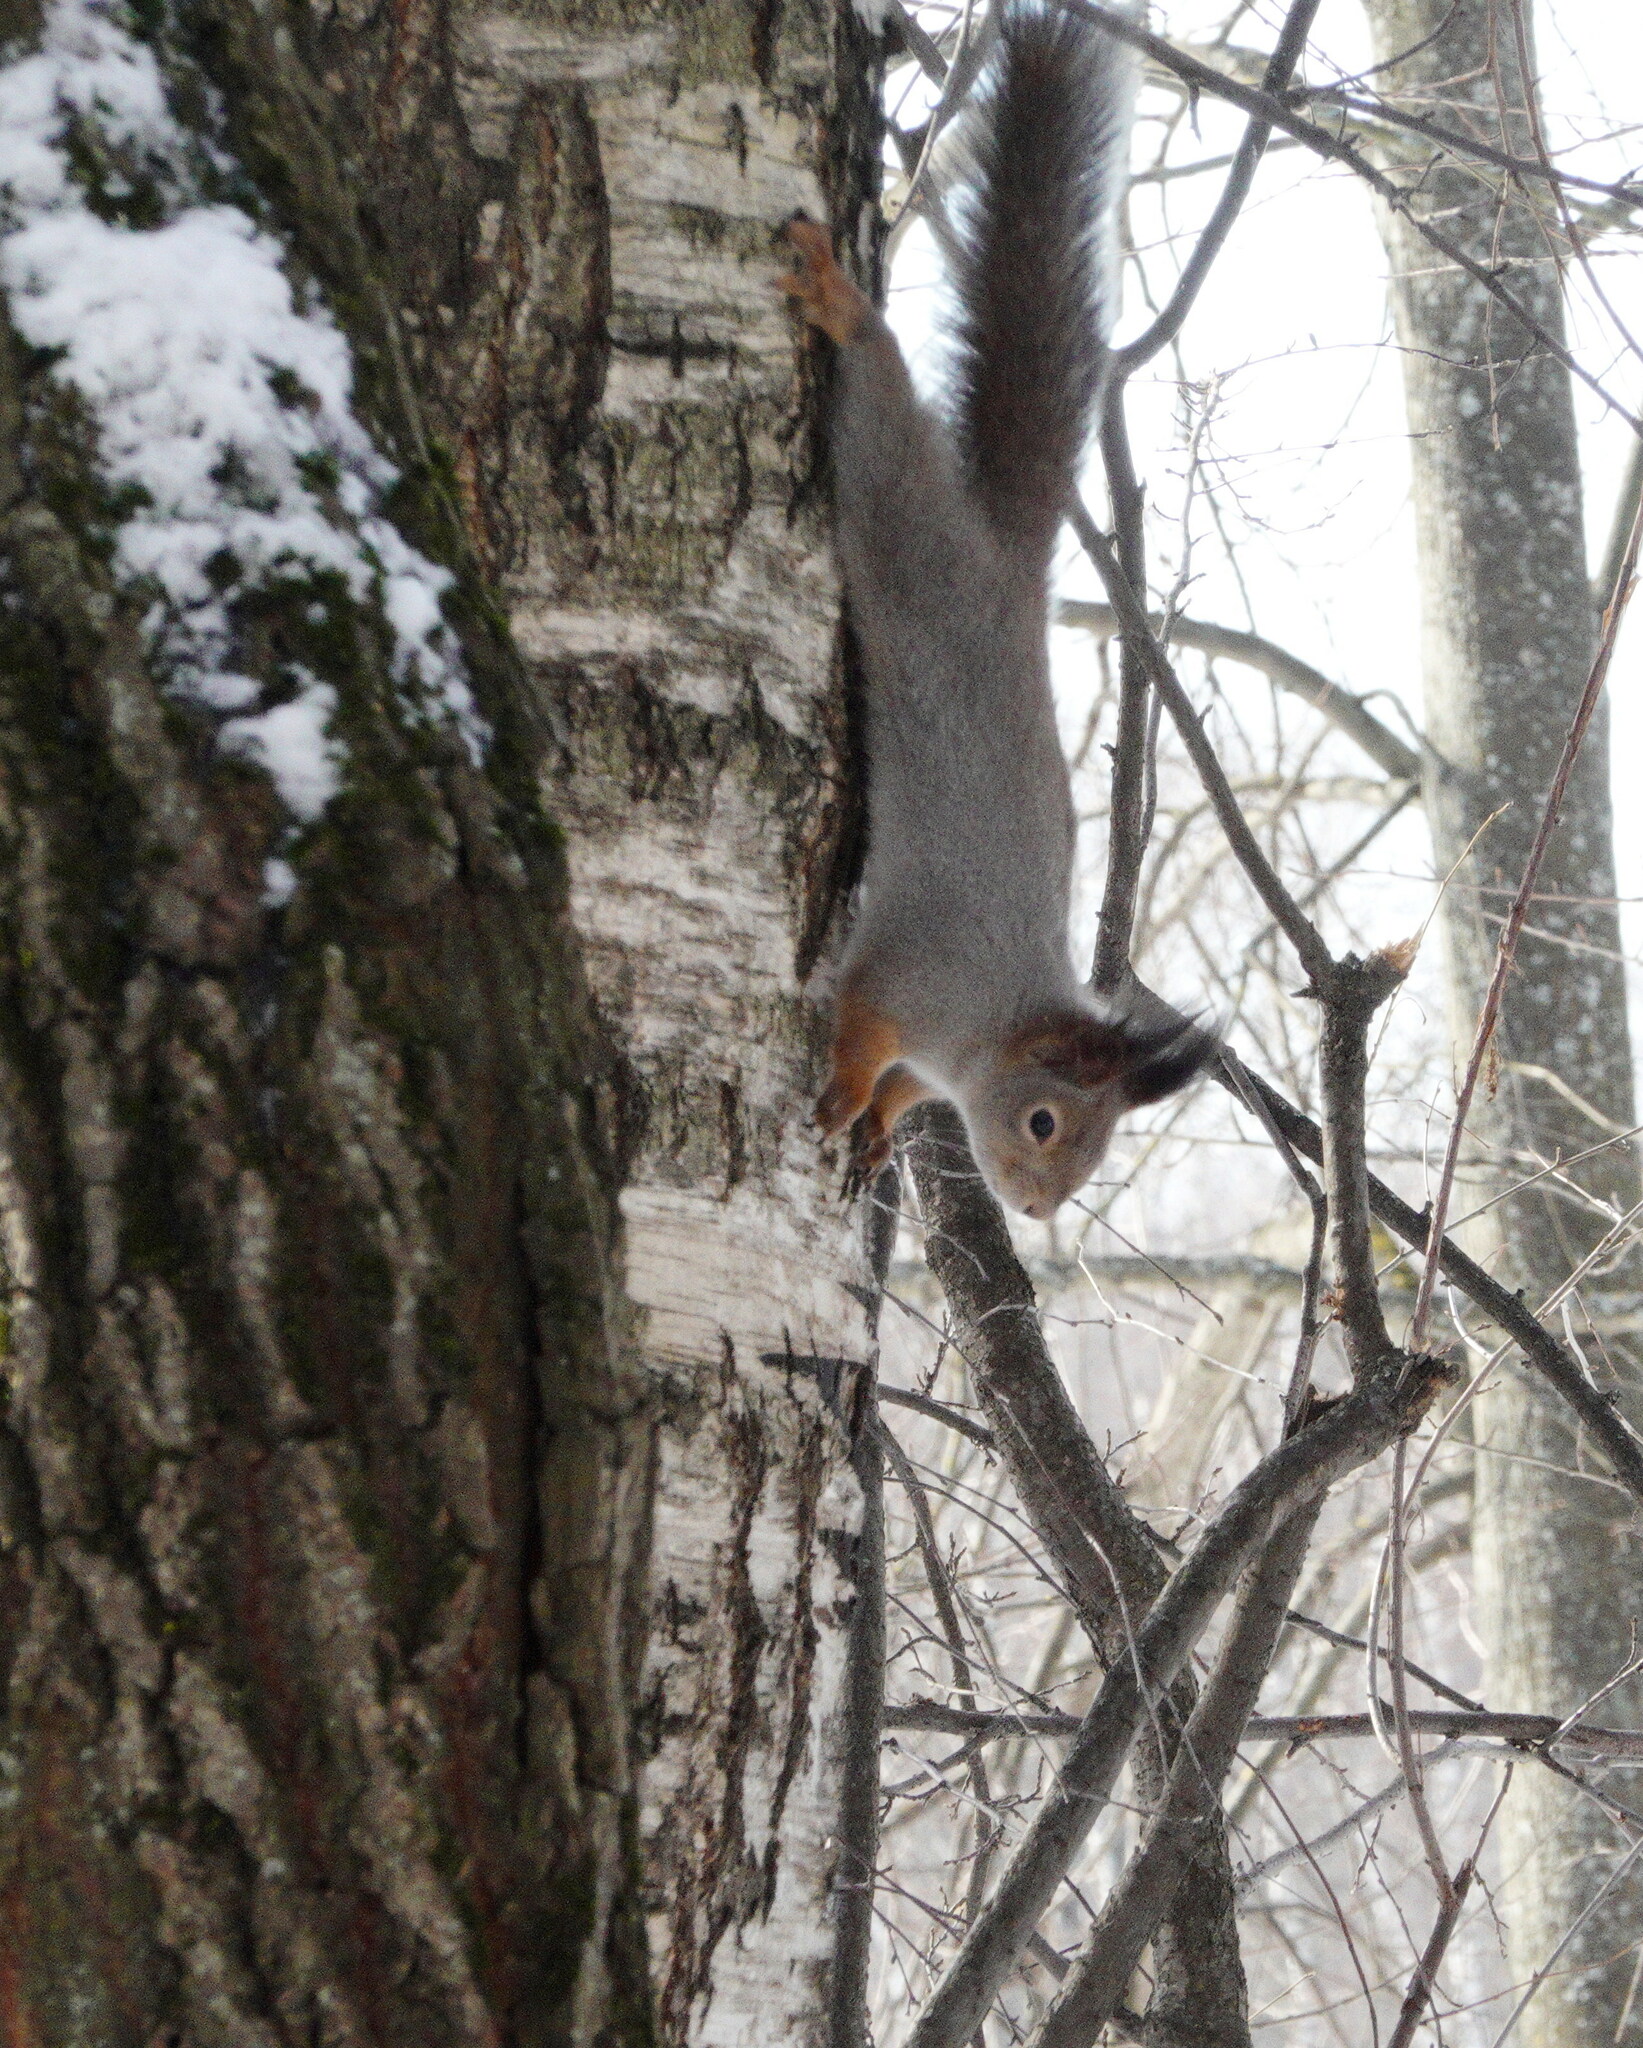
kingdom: Animalia
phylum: Chordata
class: Mammalia
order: Rodentia
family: Sciuridae
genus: Sciurus
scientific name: Sciurus vulgaris
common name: Eurasian red squirrel
